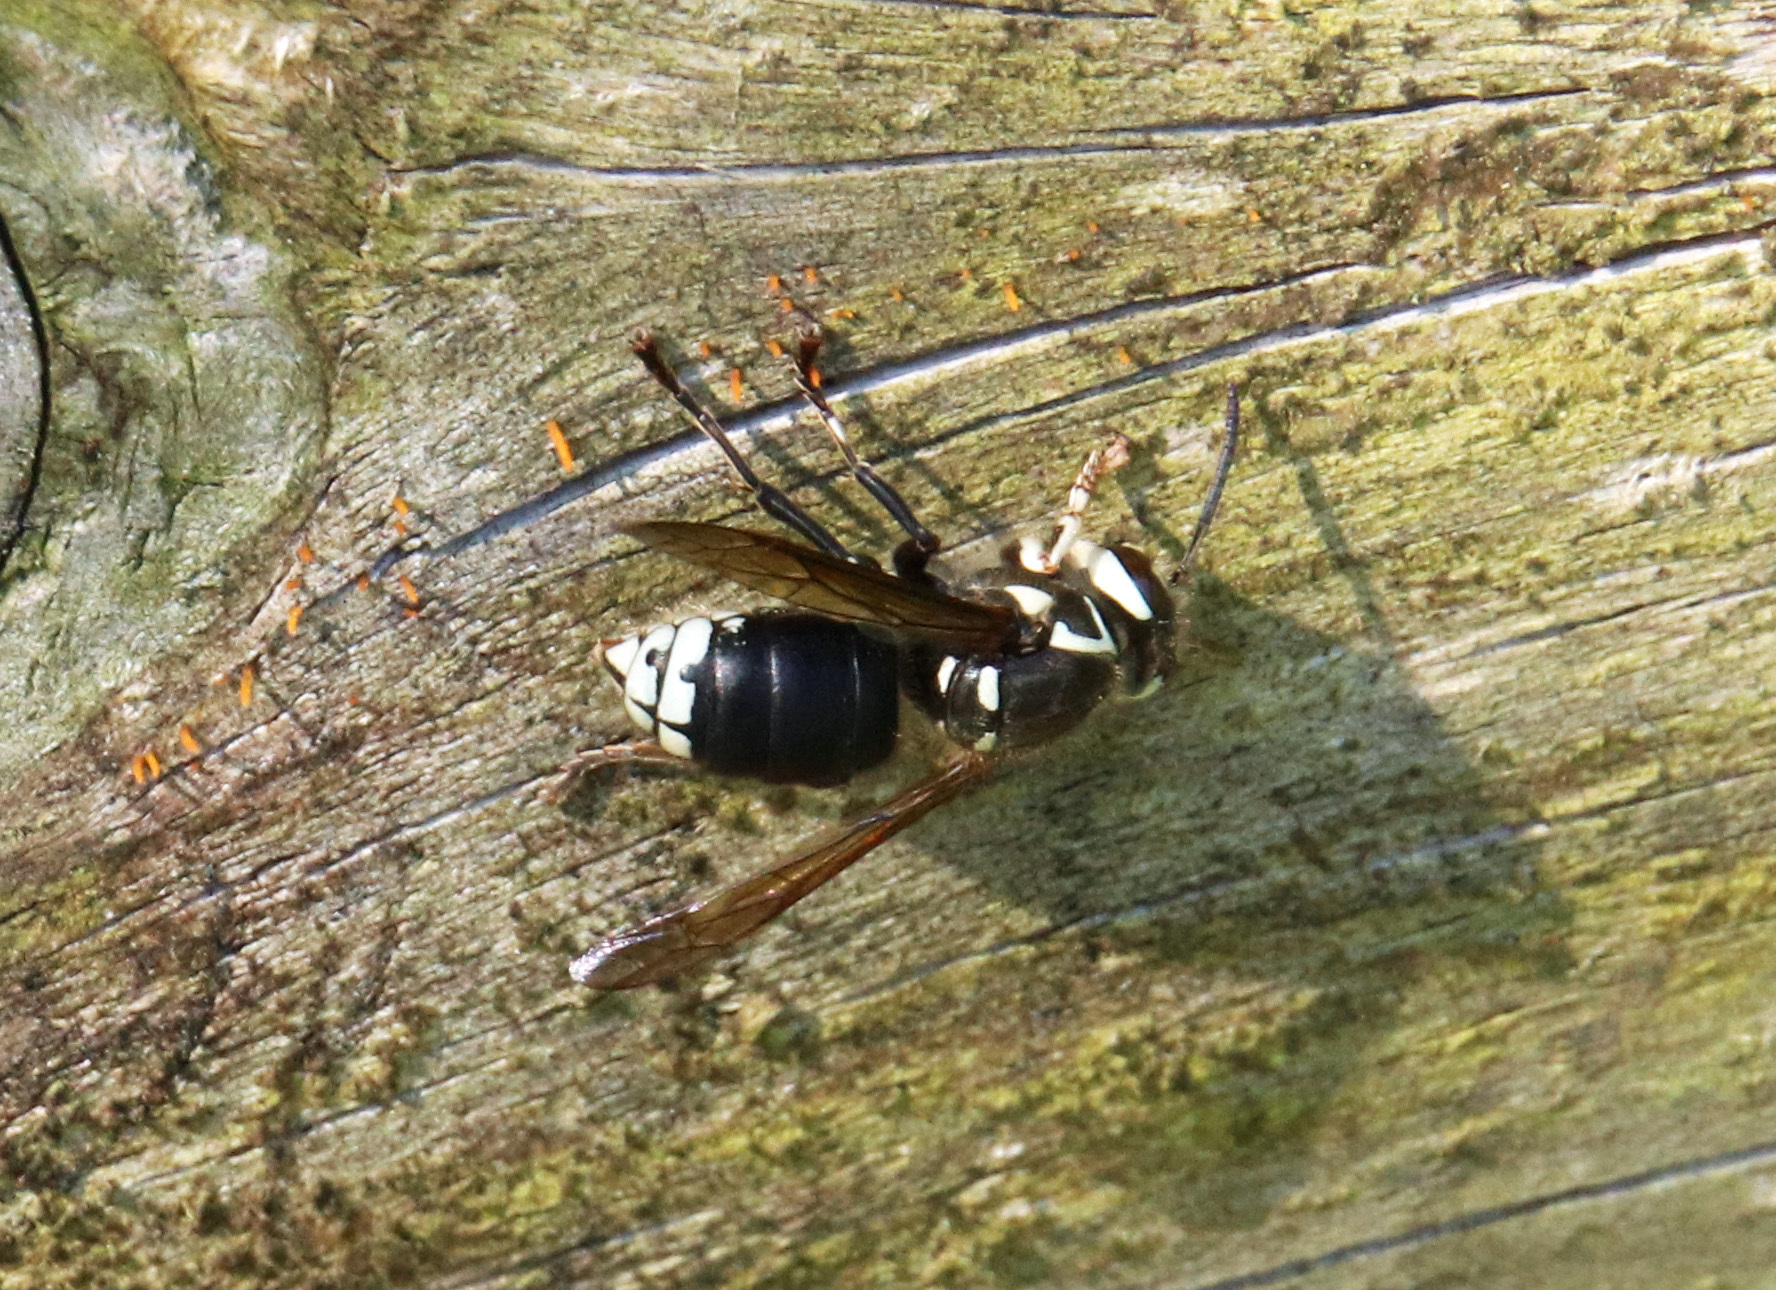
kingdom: Animalia
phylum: Arthropoda
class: Insecta
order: Hymenoptera
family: Vespidae
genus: Dolichovespula
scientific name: Dolichovespula maculata
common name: Bald-faced hornet
